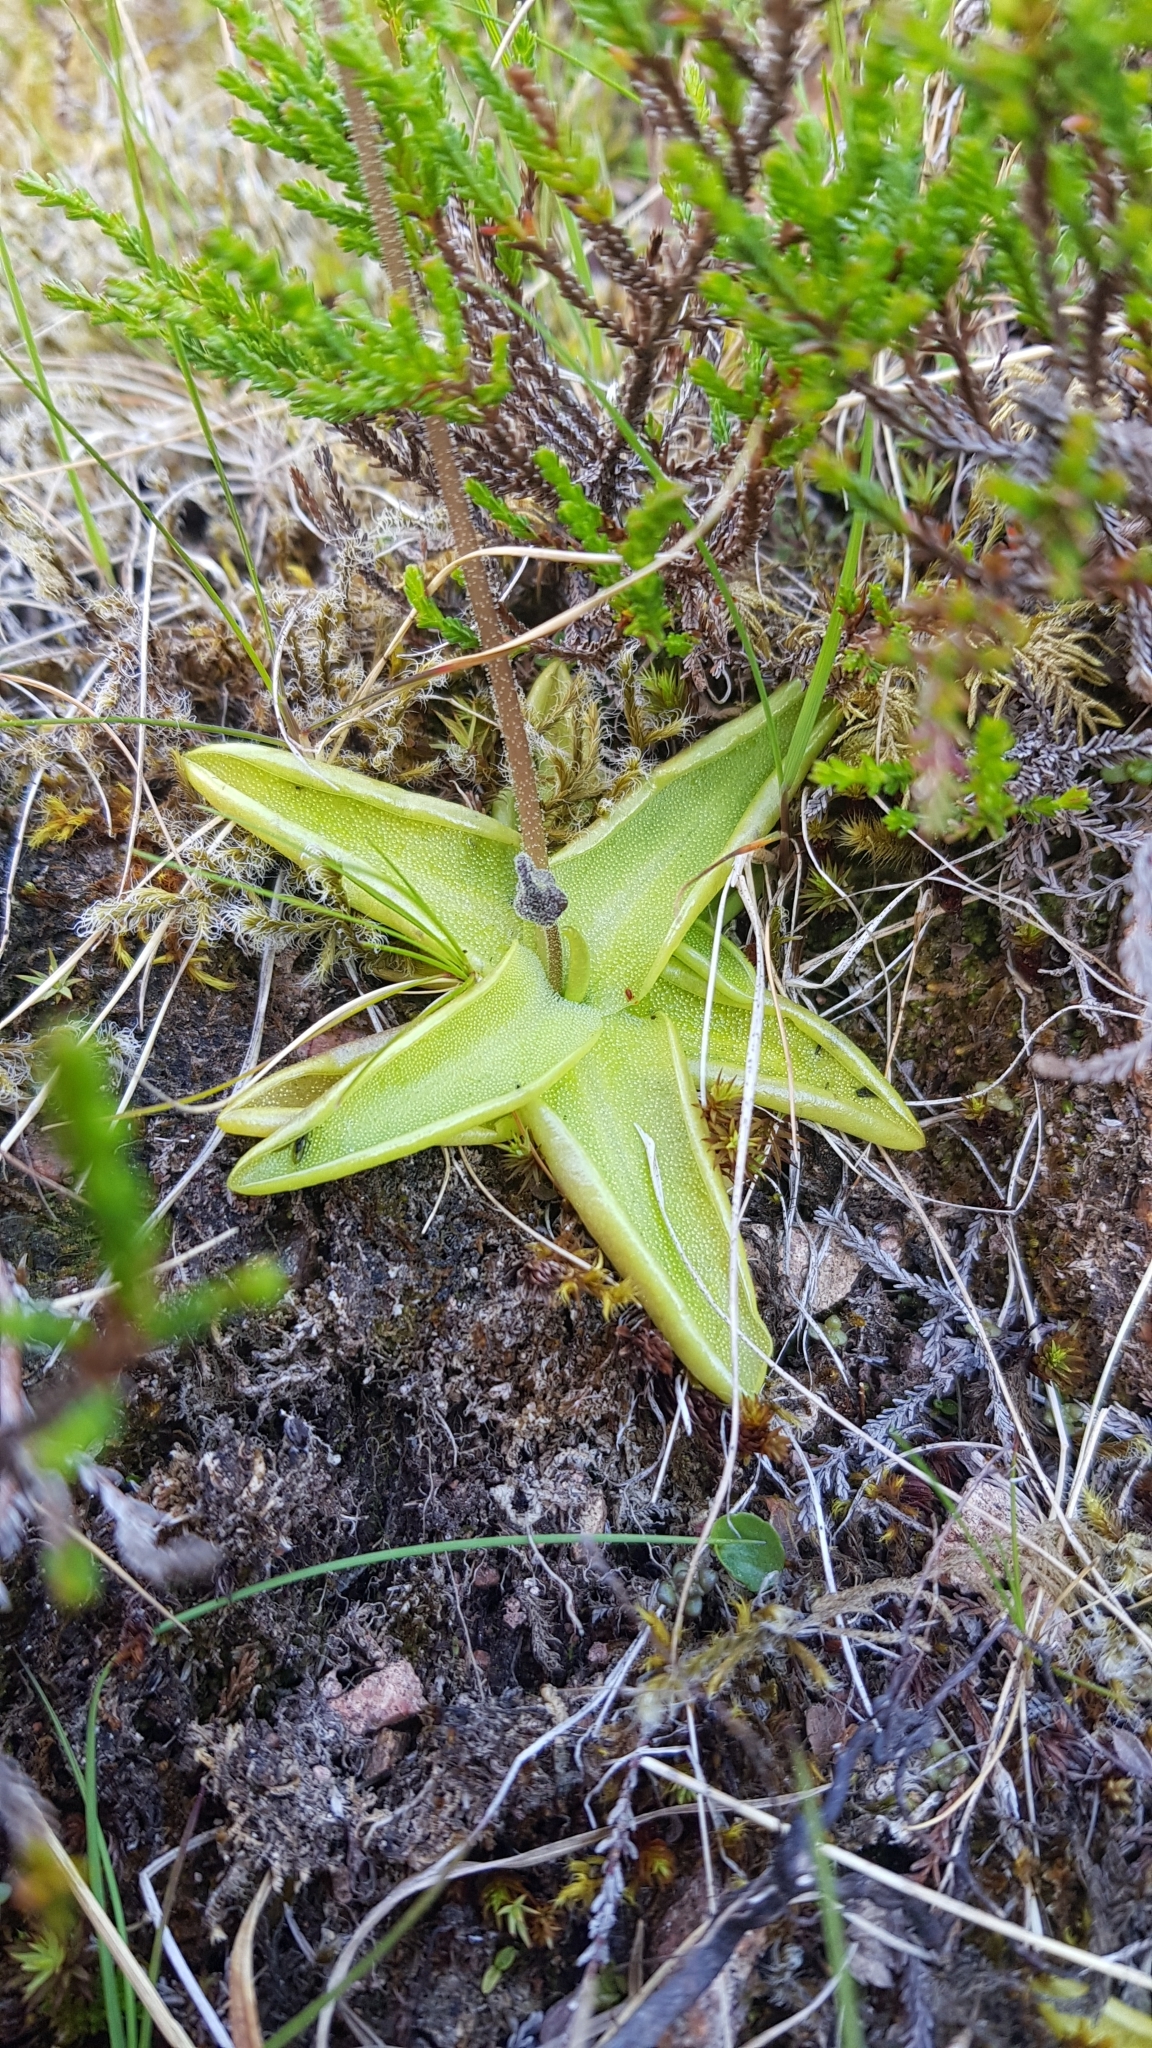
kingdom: Plantae
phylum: Tracheophyta
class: Magnoliopsida
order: Lamiales
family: Lentibulariaceae
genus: Pinguicula
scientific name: Pinguicula vulgaris
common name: Common butterwort
